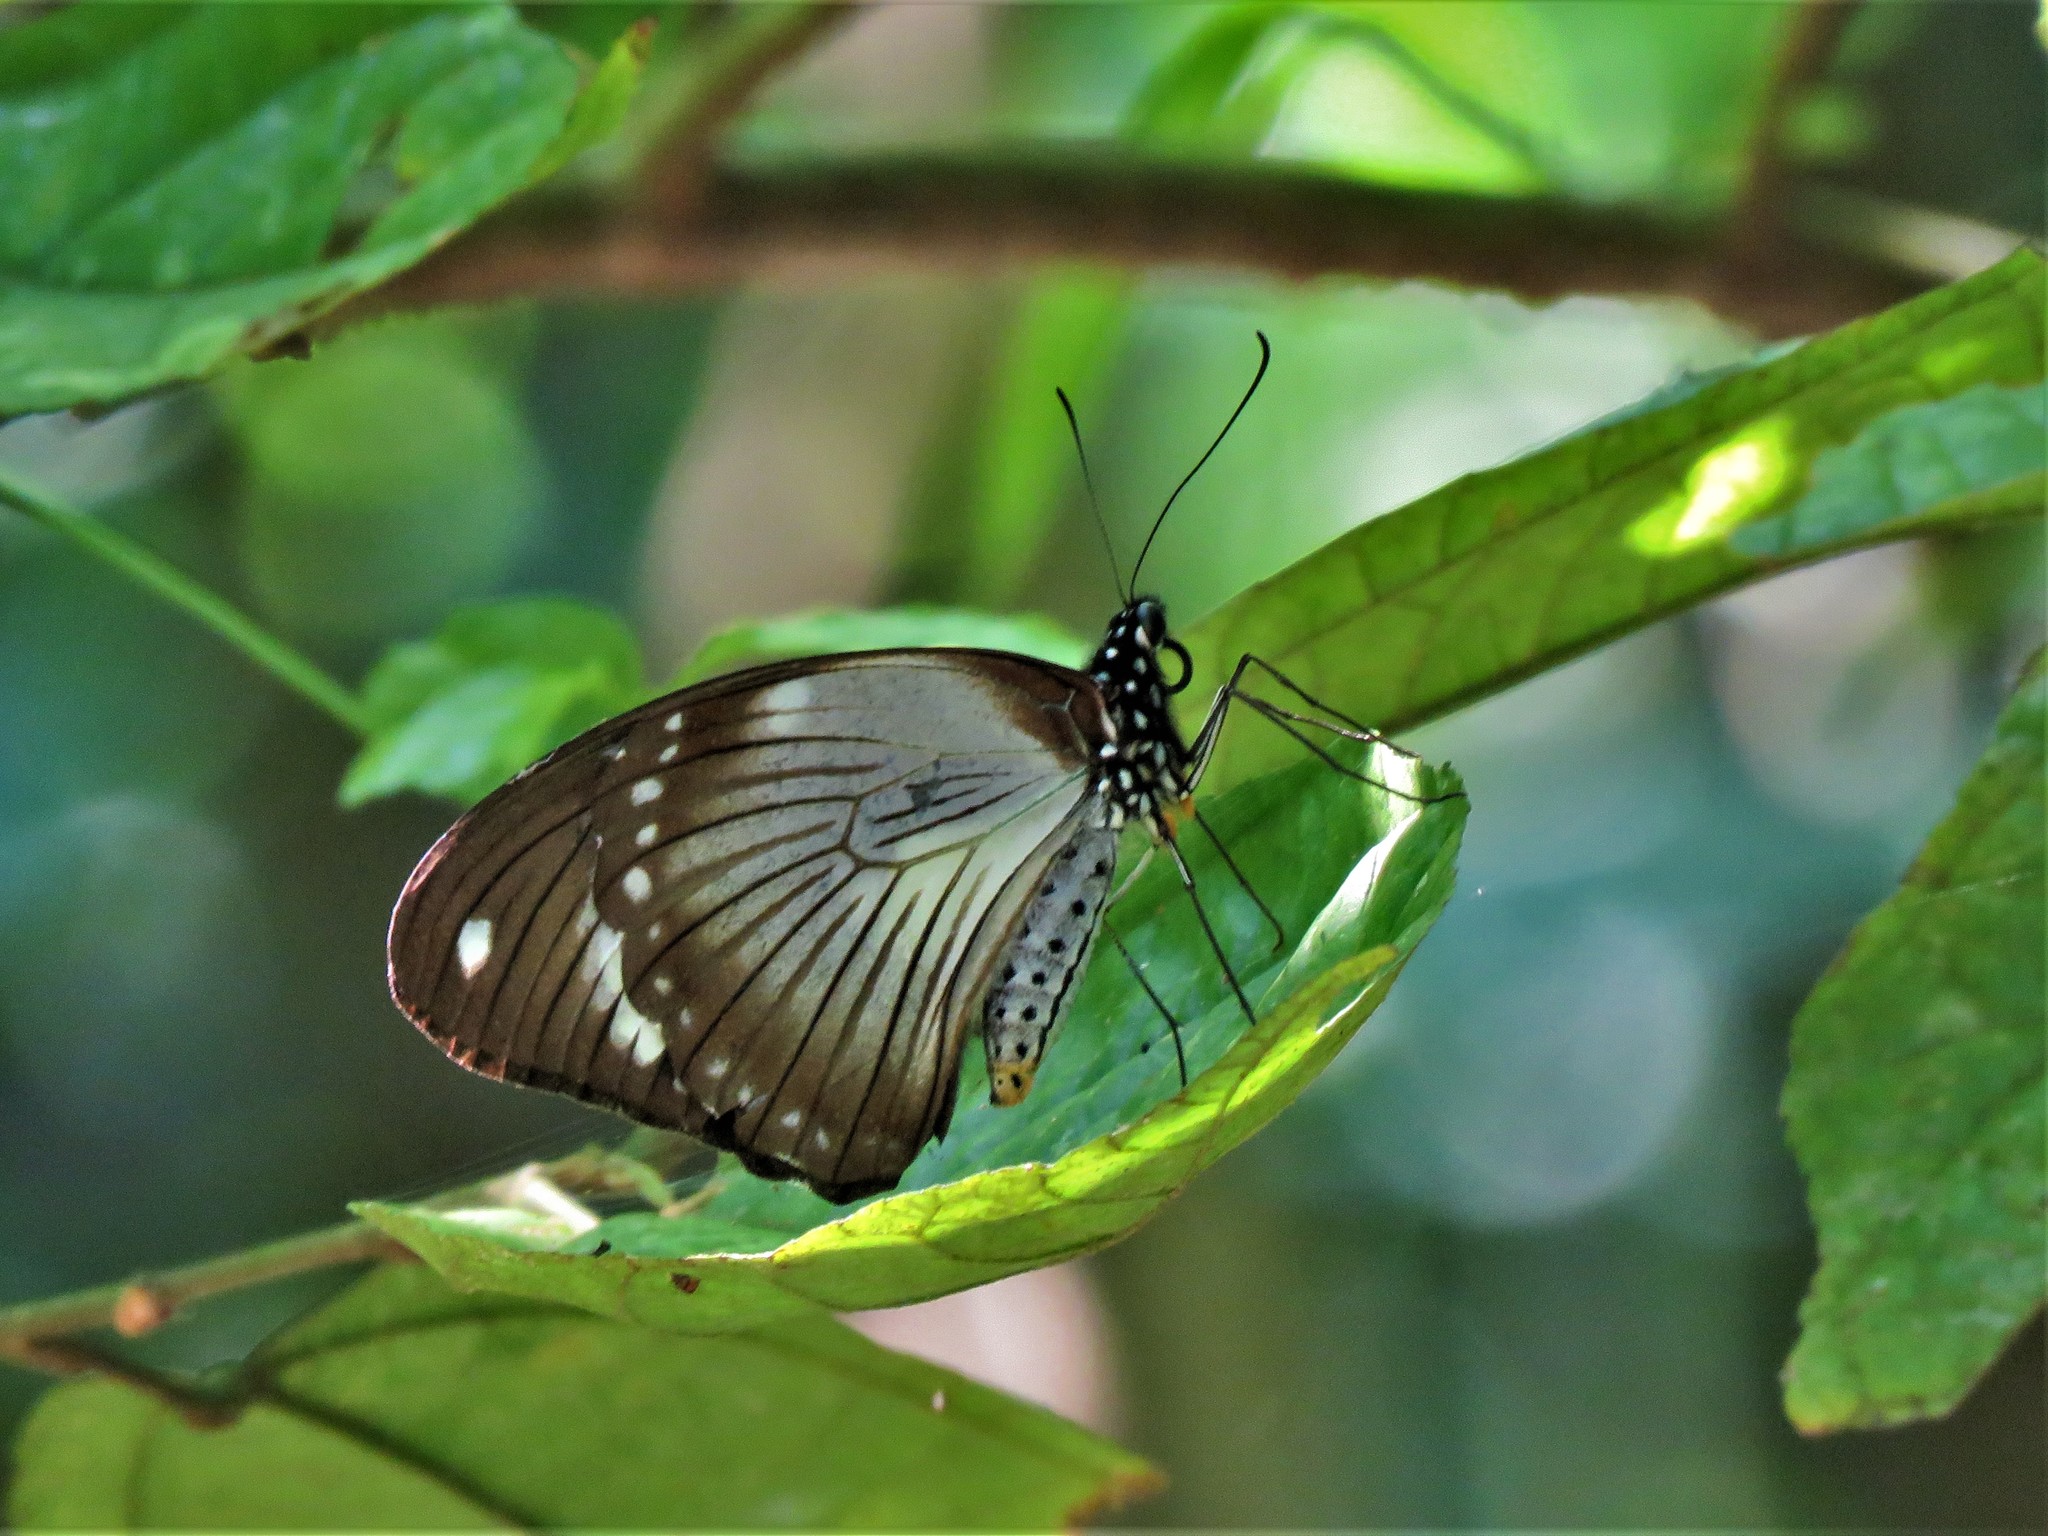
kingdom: Animalia
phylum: Arthropoda
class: Insecta
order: Lepidoptera
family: Papilionidae
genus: Papilio
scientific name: Papilio dardanus
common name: Flying handkerchief
